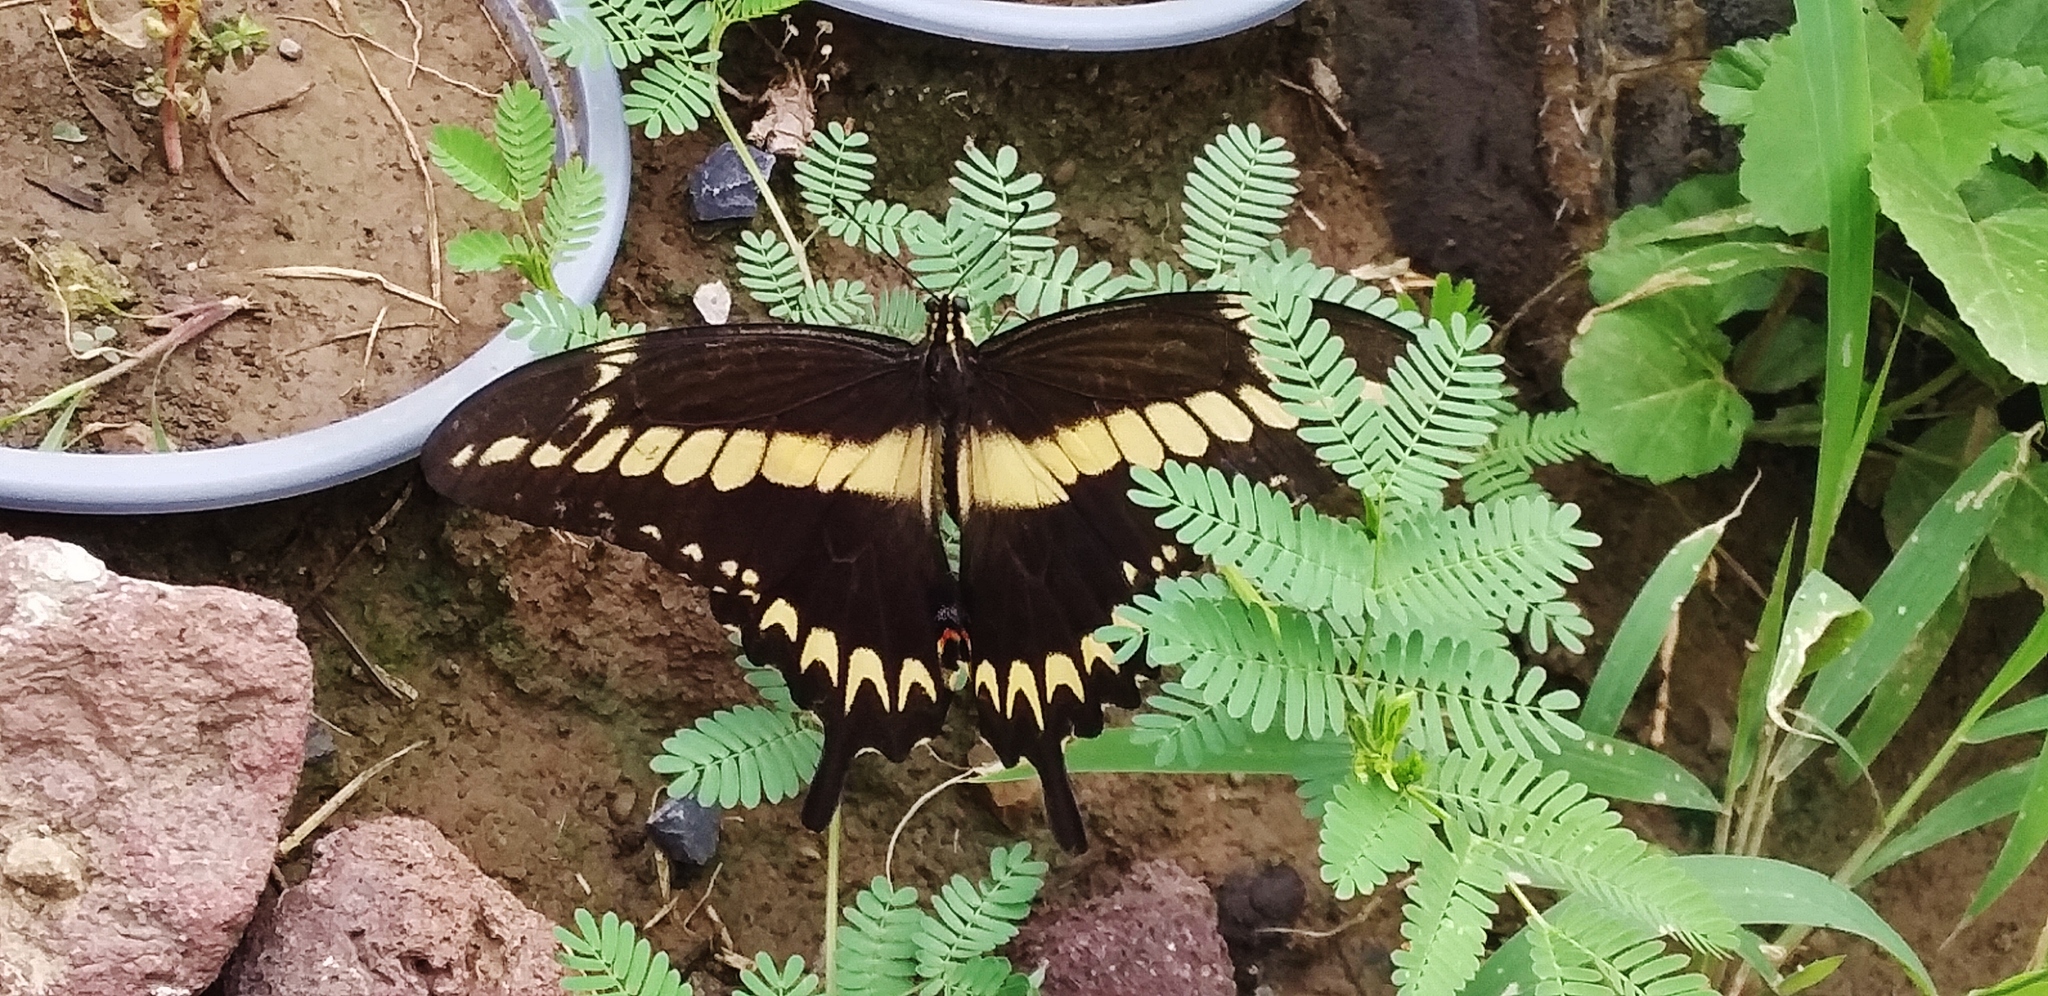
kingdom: Animalia
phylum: Arthropoda
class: Insecta
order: Lepidoptera
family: Papilionidae
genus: Papilio
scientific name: Papilio ornythion
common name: Ornythion swallowtail
